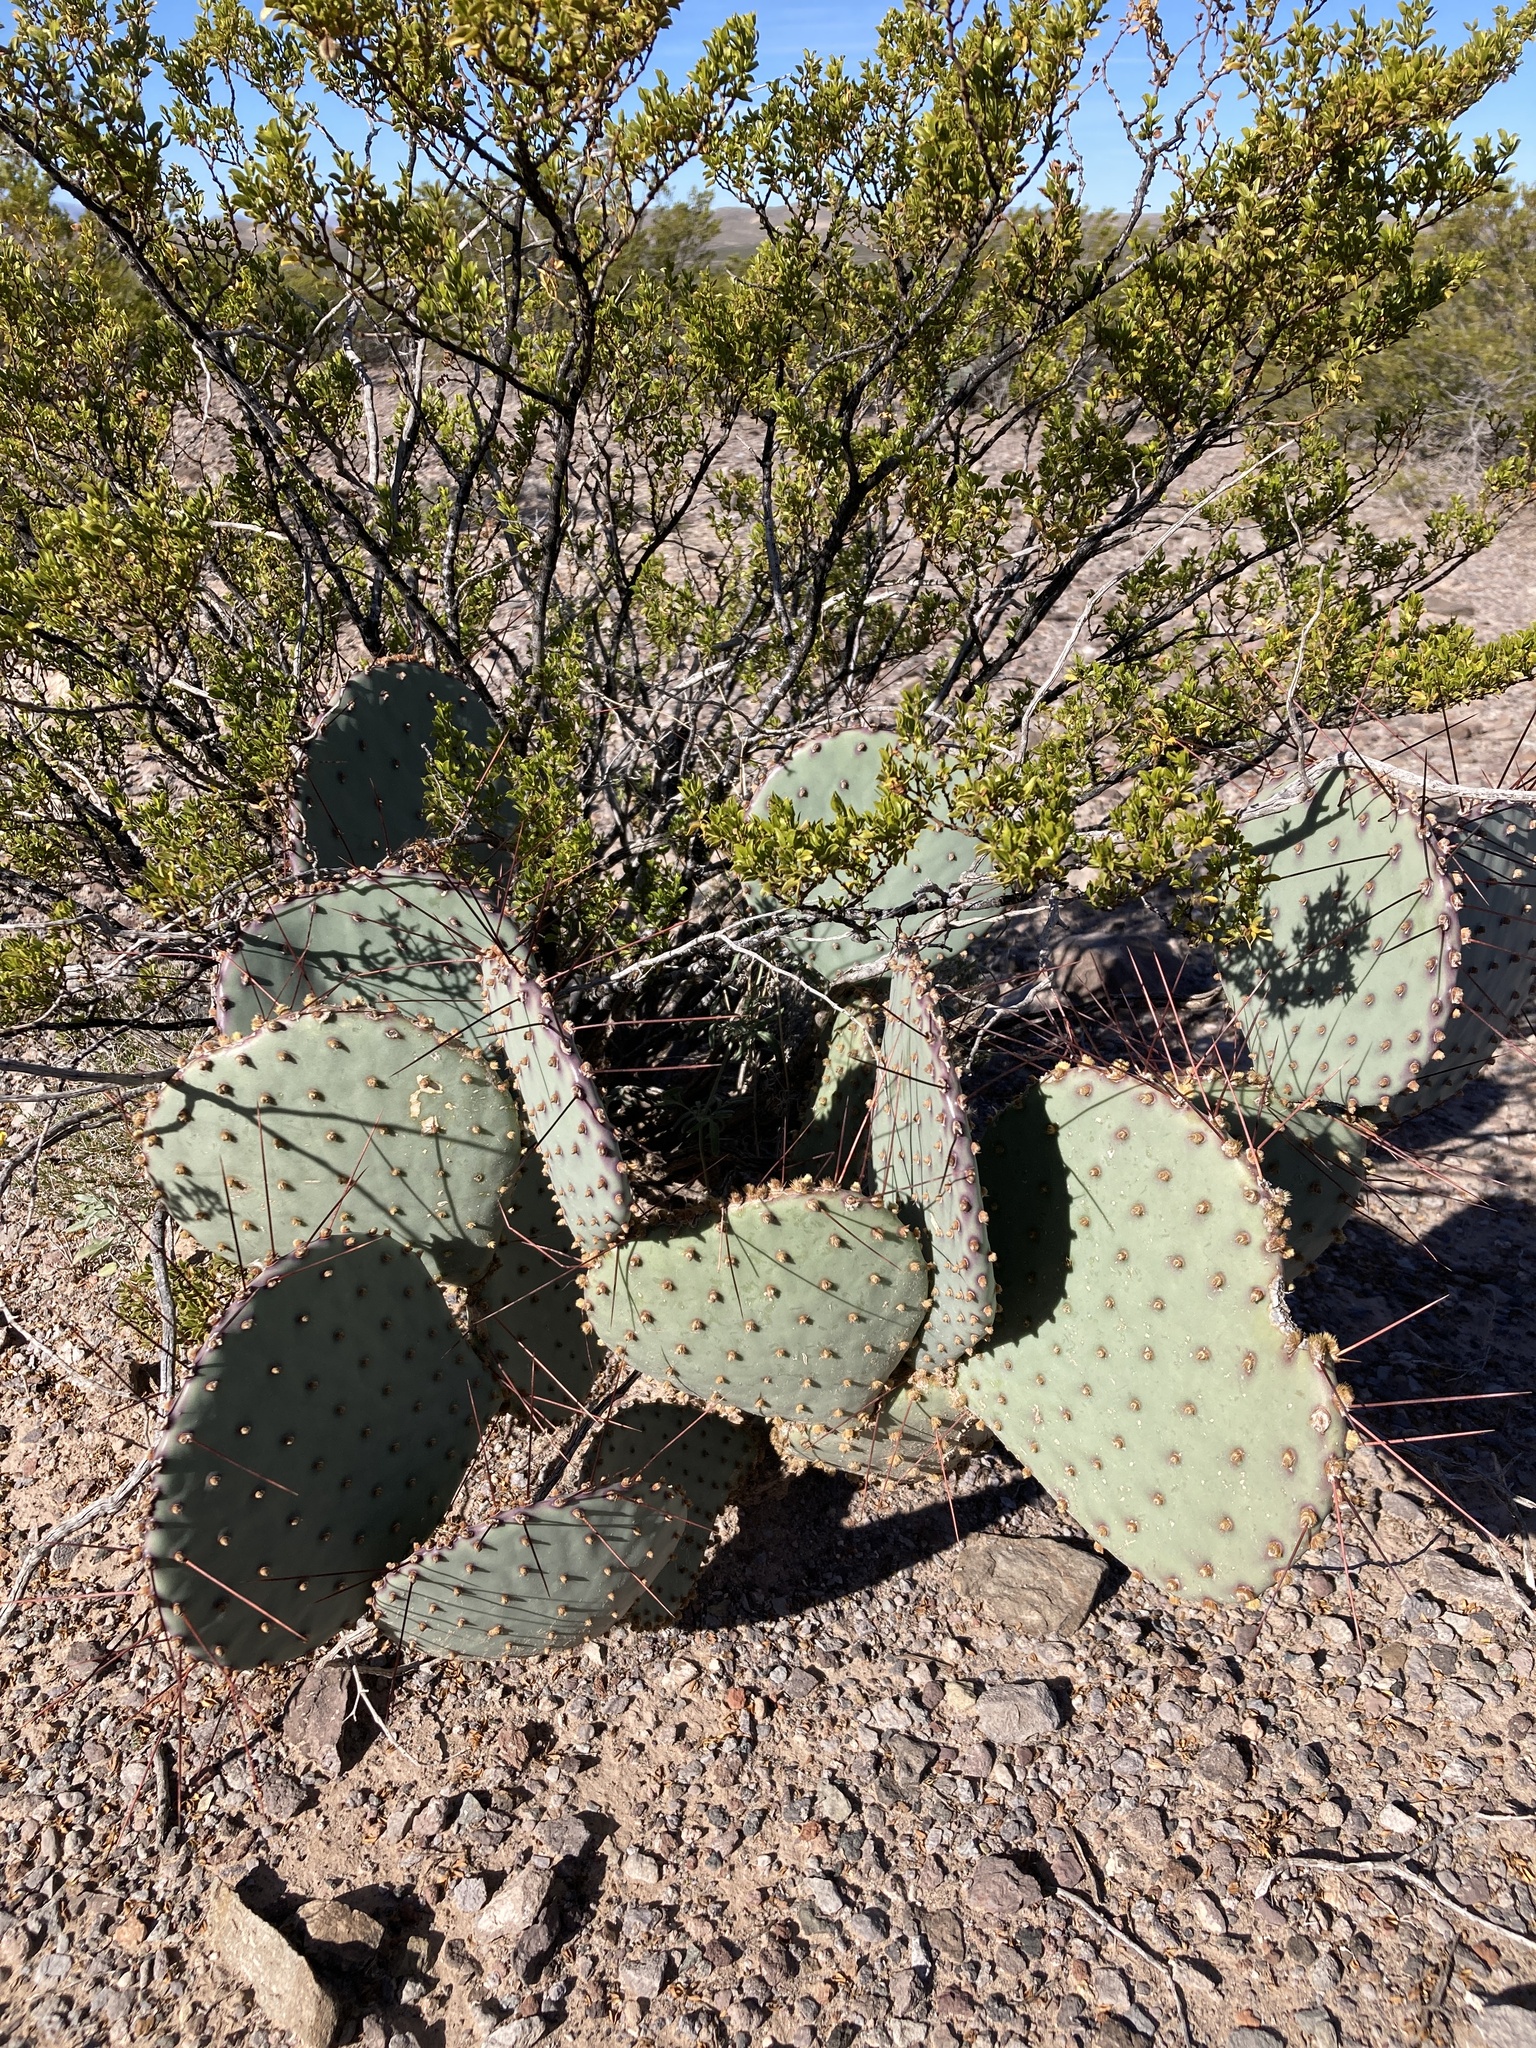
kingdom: Plantae
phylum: Tracheophyta
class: Magnoliopsida
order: Caryophyllales
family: Cactaceae
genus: Opuntia
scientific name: Opuntia macrocentra
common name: Purple prickly-pear
